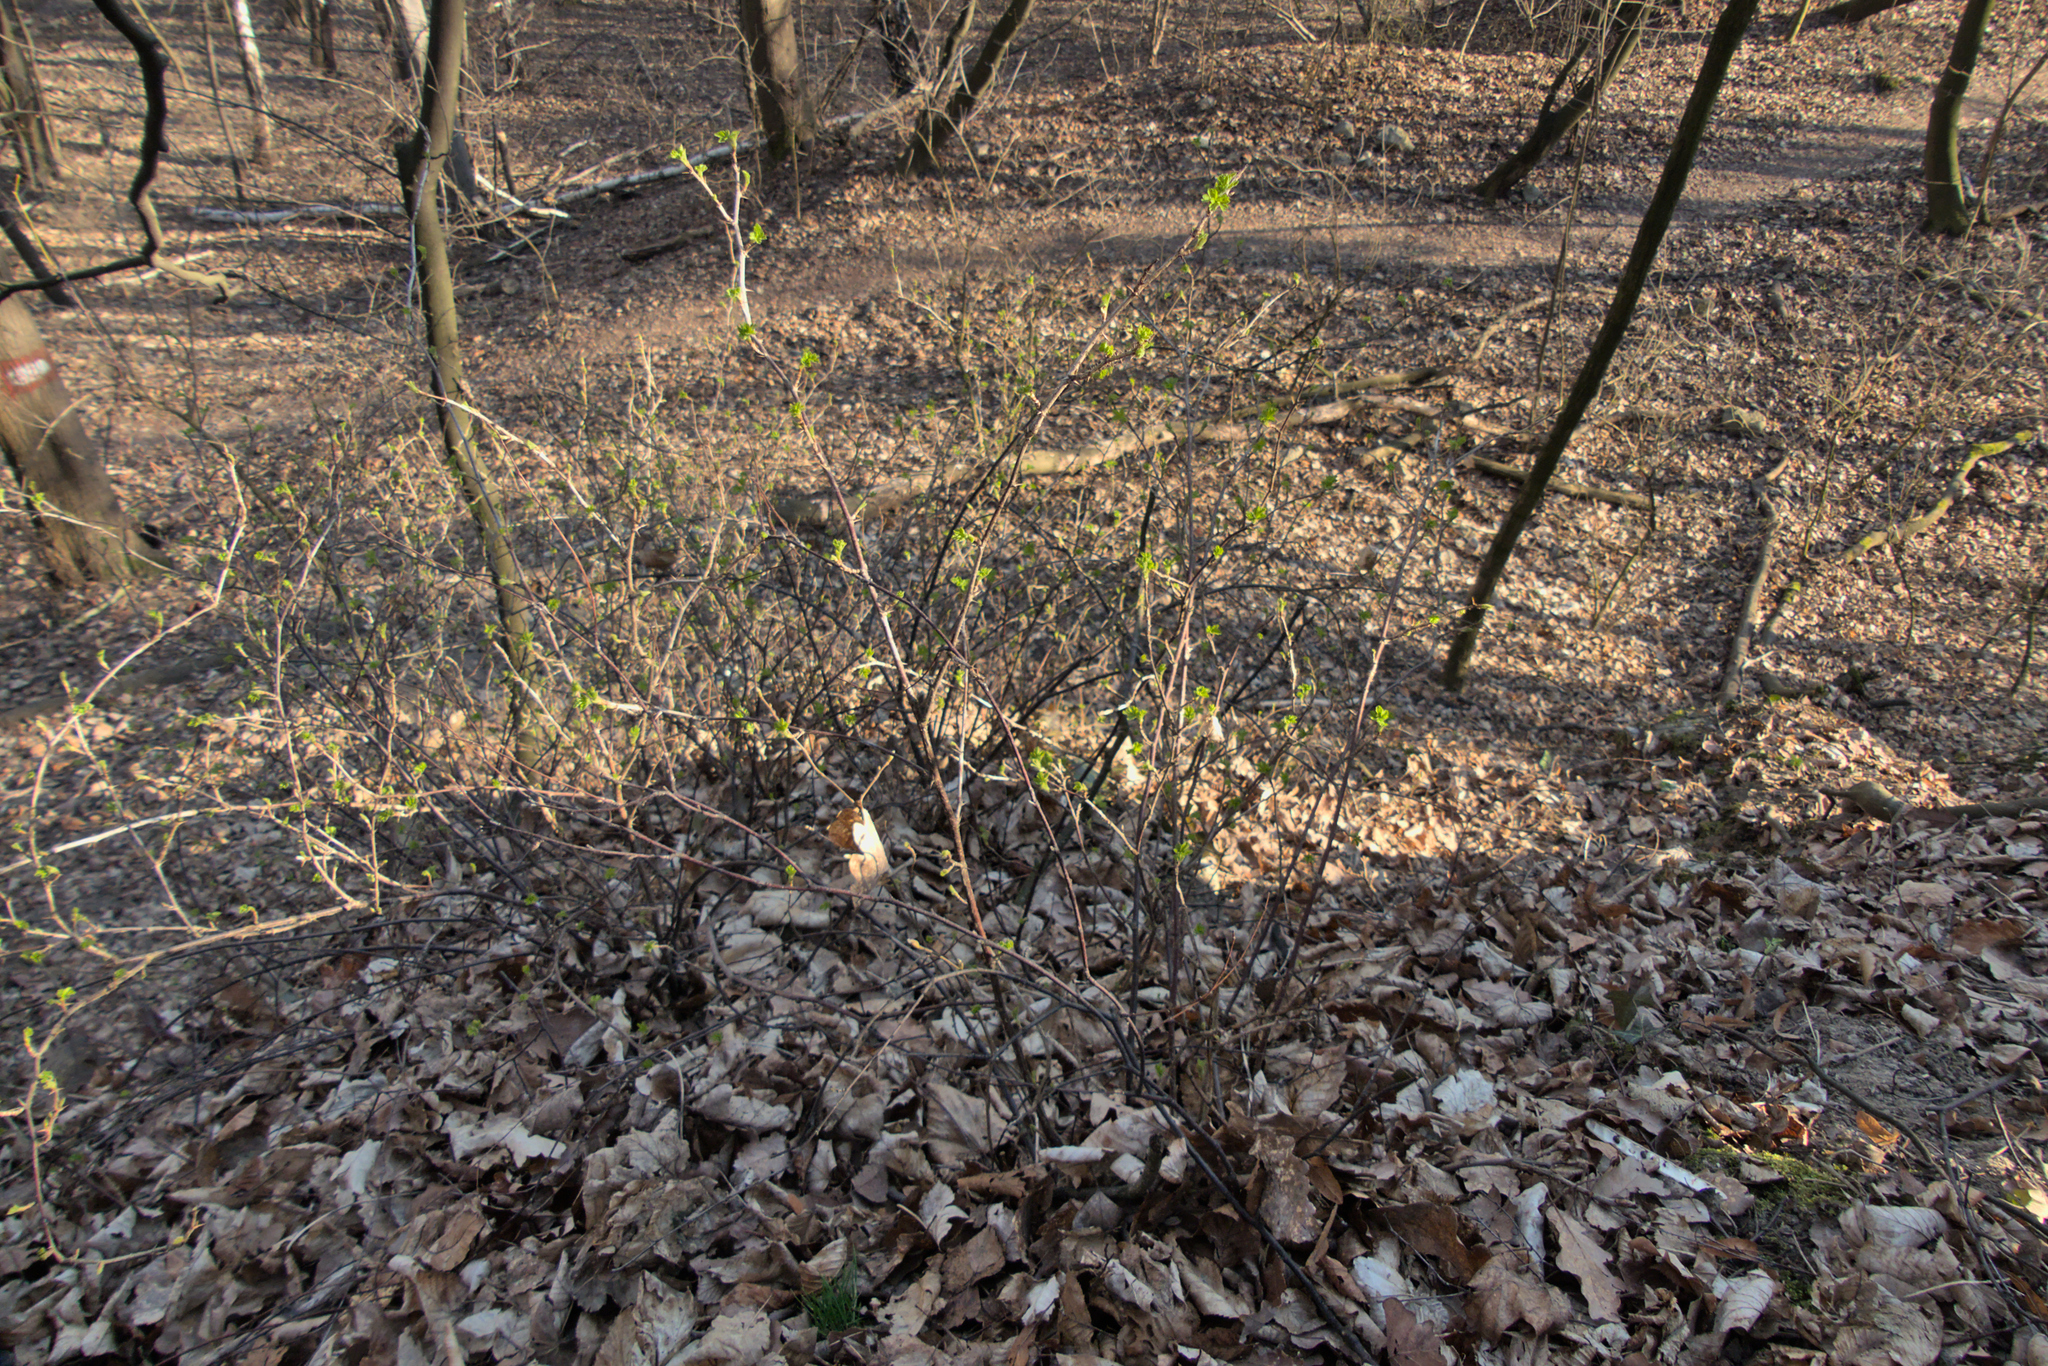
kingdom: Plantae
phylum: Tracheophyta
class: Magnoliopsida
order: Saxifragales
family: Grossulariaceae
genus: Ribes
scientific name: Ribes uva-crispa
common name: Gooseberry
